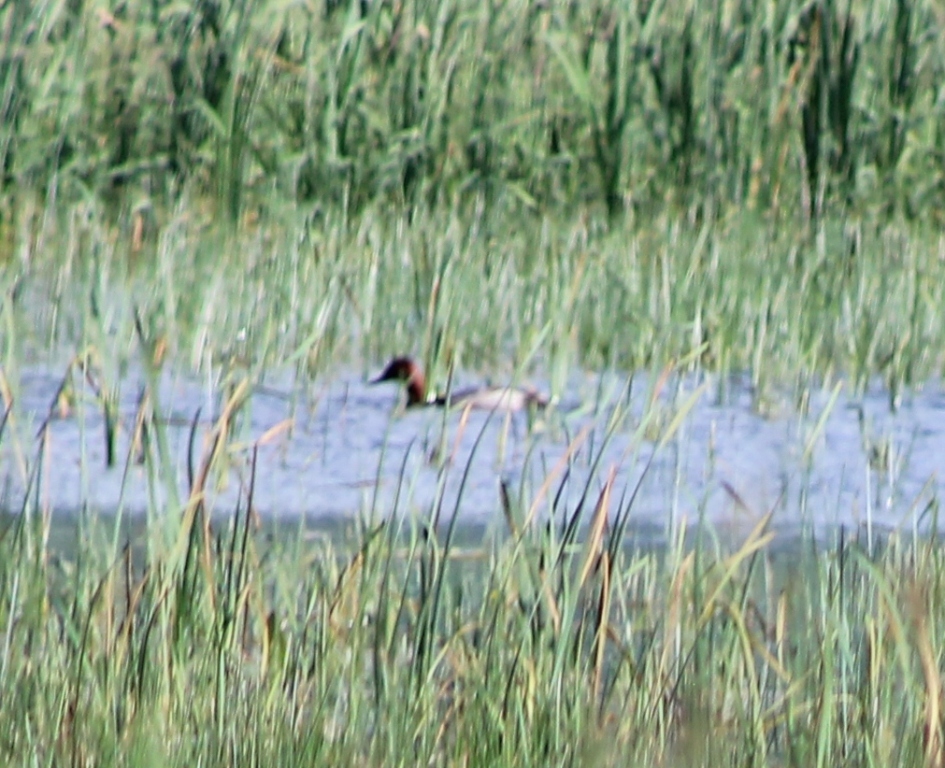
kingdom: Animalia
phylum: Chordata
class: Aves
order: Anseriformes
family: Anatidae
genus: Aythya
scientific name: Aythya americana
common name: Redhead
